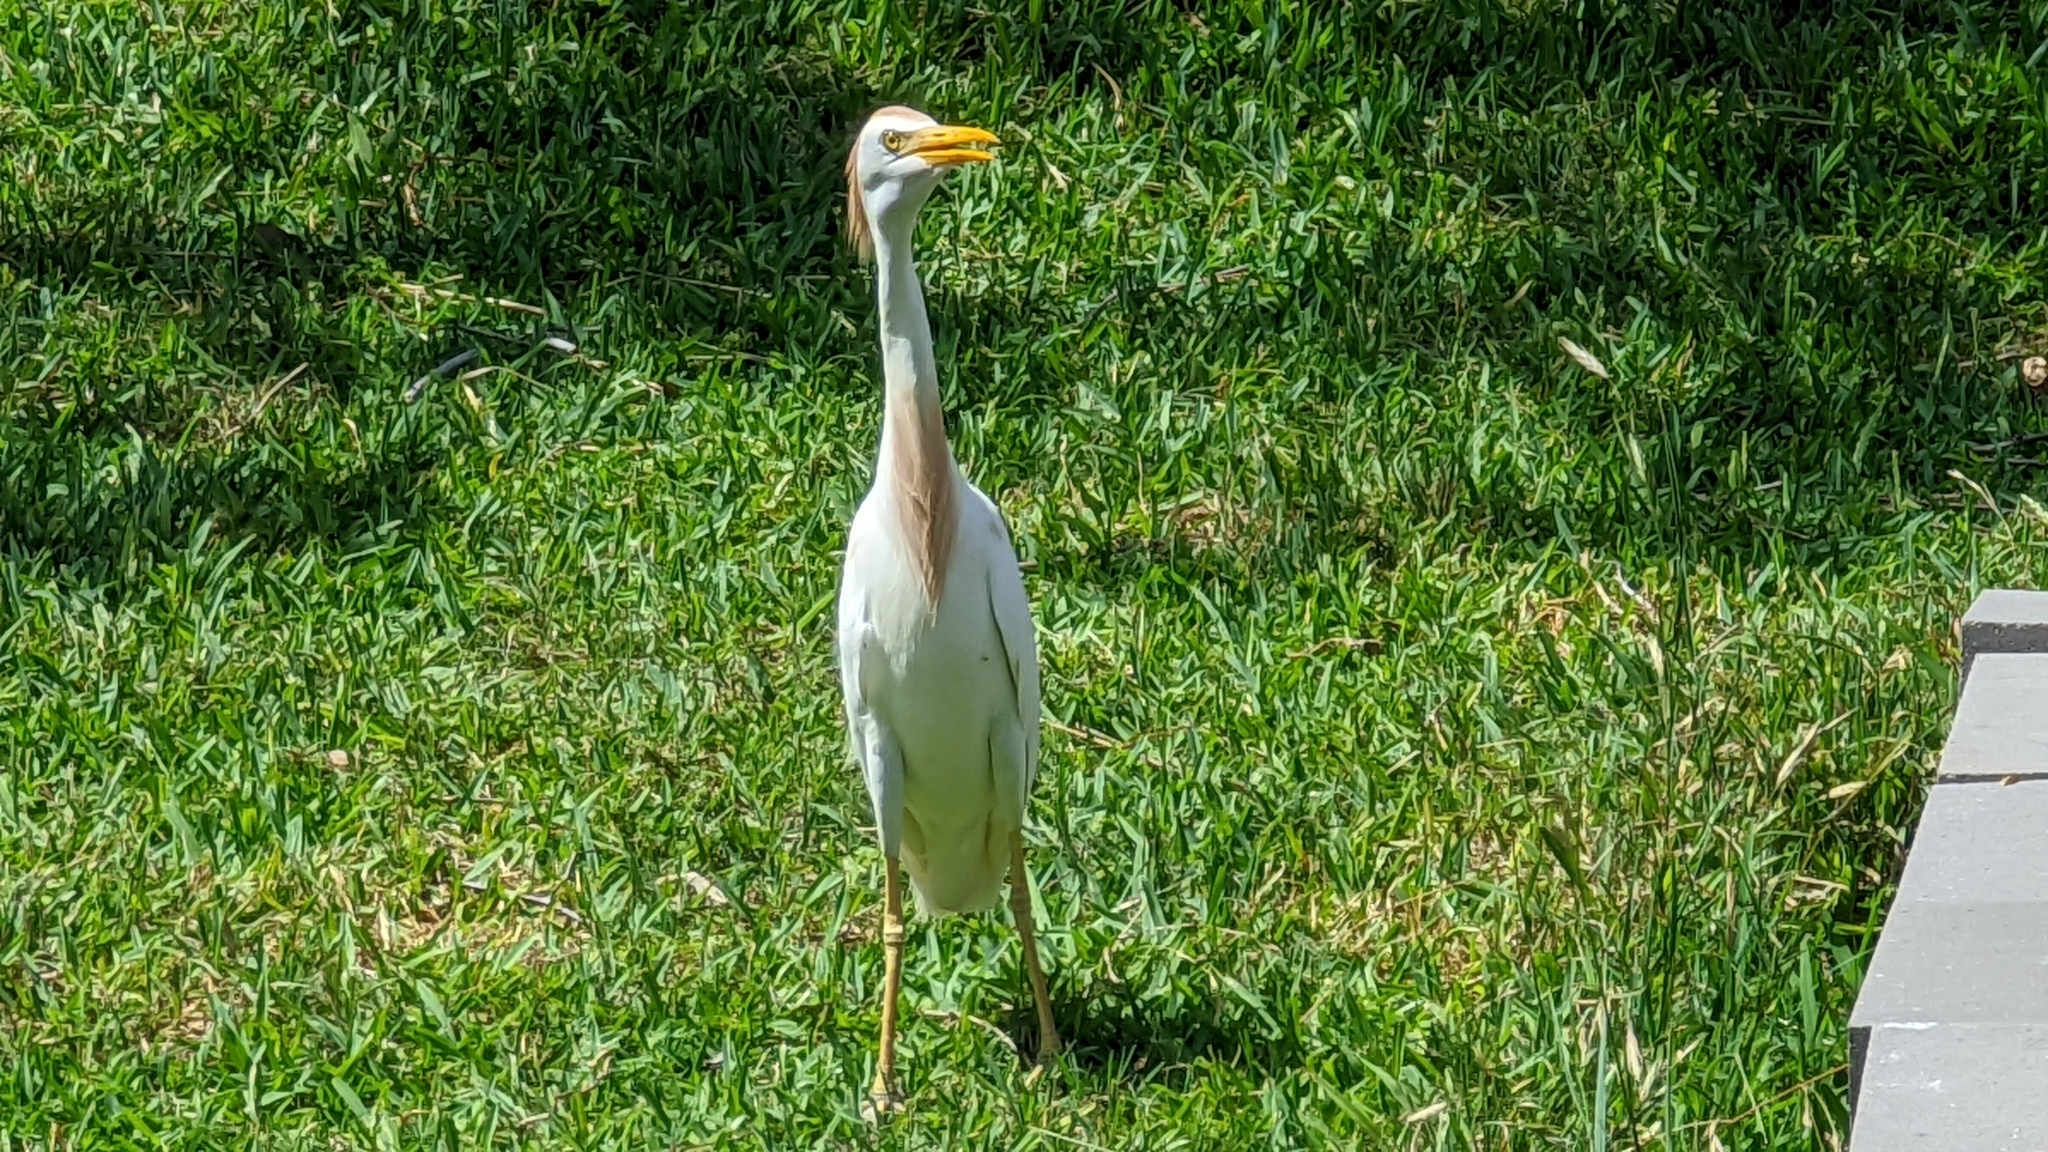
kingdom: Animalia
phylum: Chordata
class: Aves
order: Pelecaniformes
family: Ardeidae
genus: Bubulcus
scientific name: Bubulcus ibis
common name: Cattle egret
